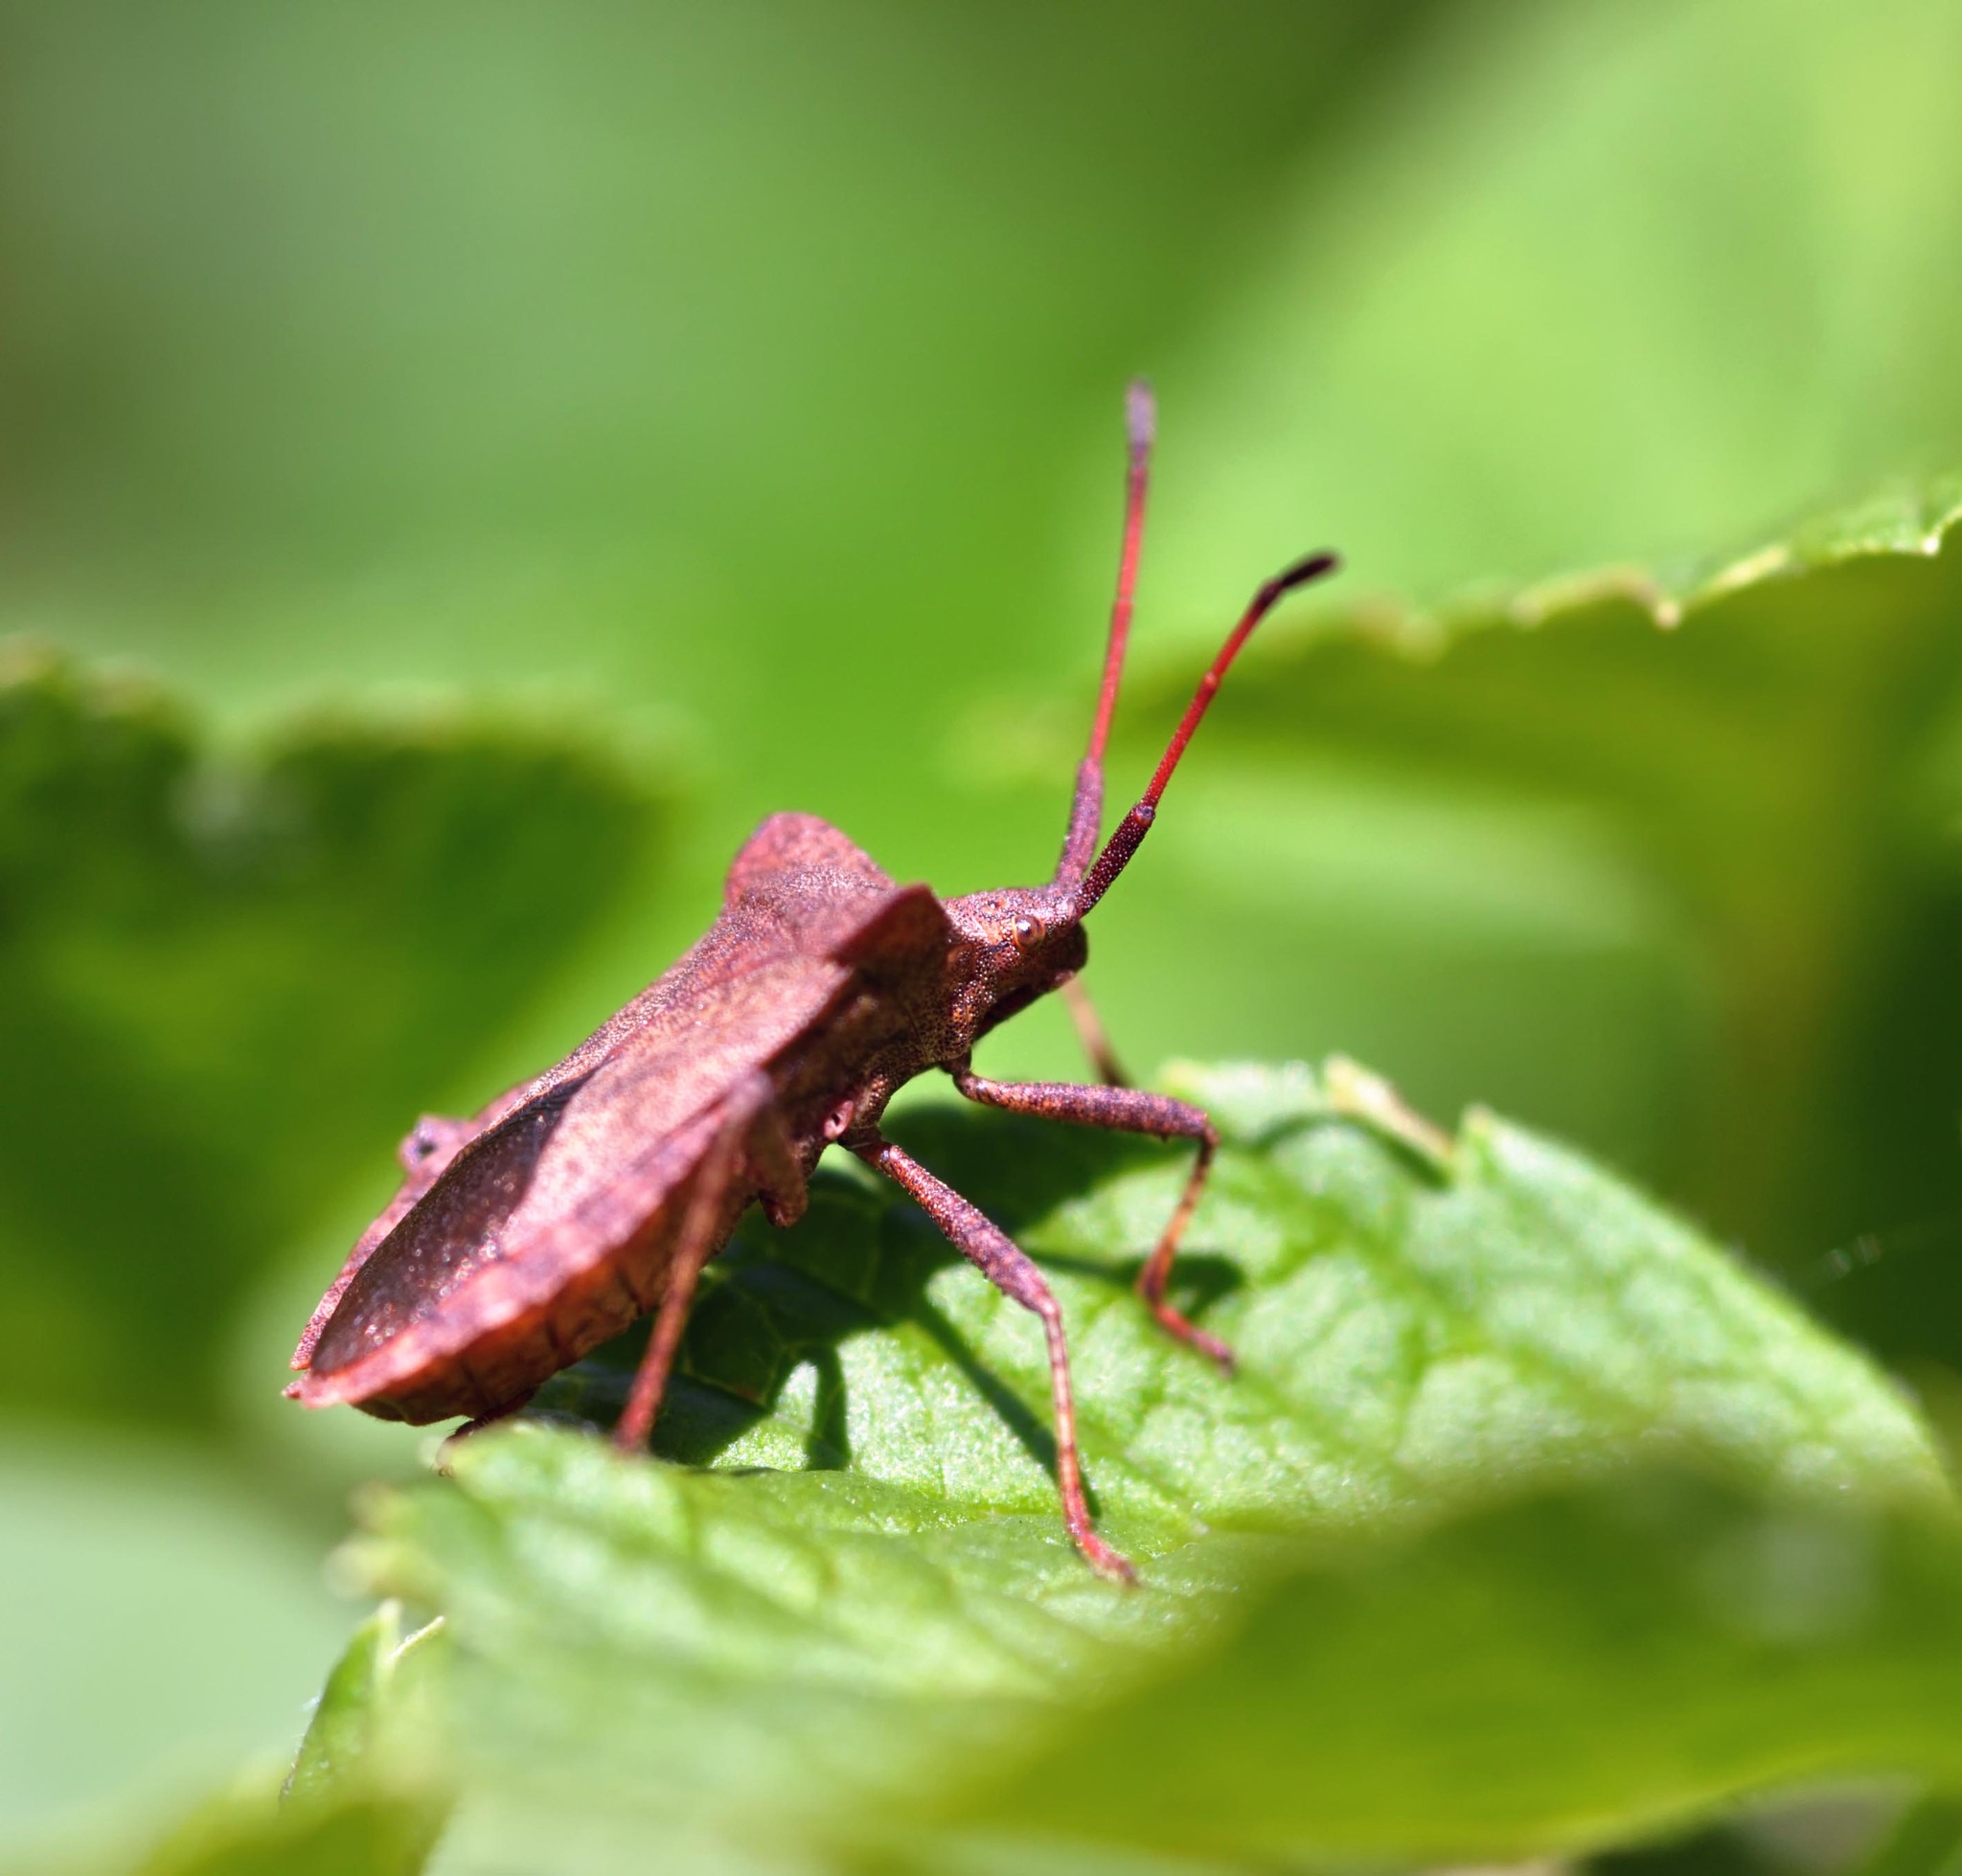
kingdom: Animalia
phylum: Arthropoda
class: Insecta
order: Hemiptera
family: Coreidae
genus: Coreus
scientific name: Coreus marginatus
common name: Dock bug
